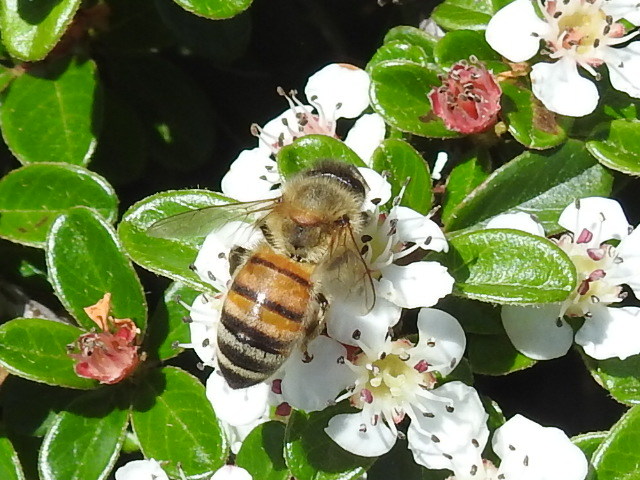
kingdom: Animalia
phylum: Arthropoda
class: Insecta
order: Hymenoptera
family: Apidae
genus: Apis
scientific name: Apis mellifera
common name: Honey bee
